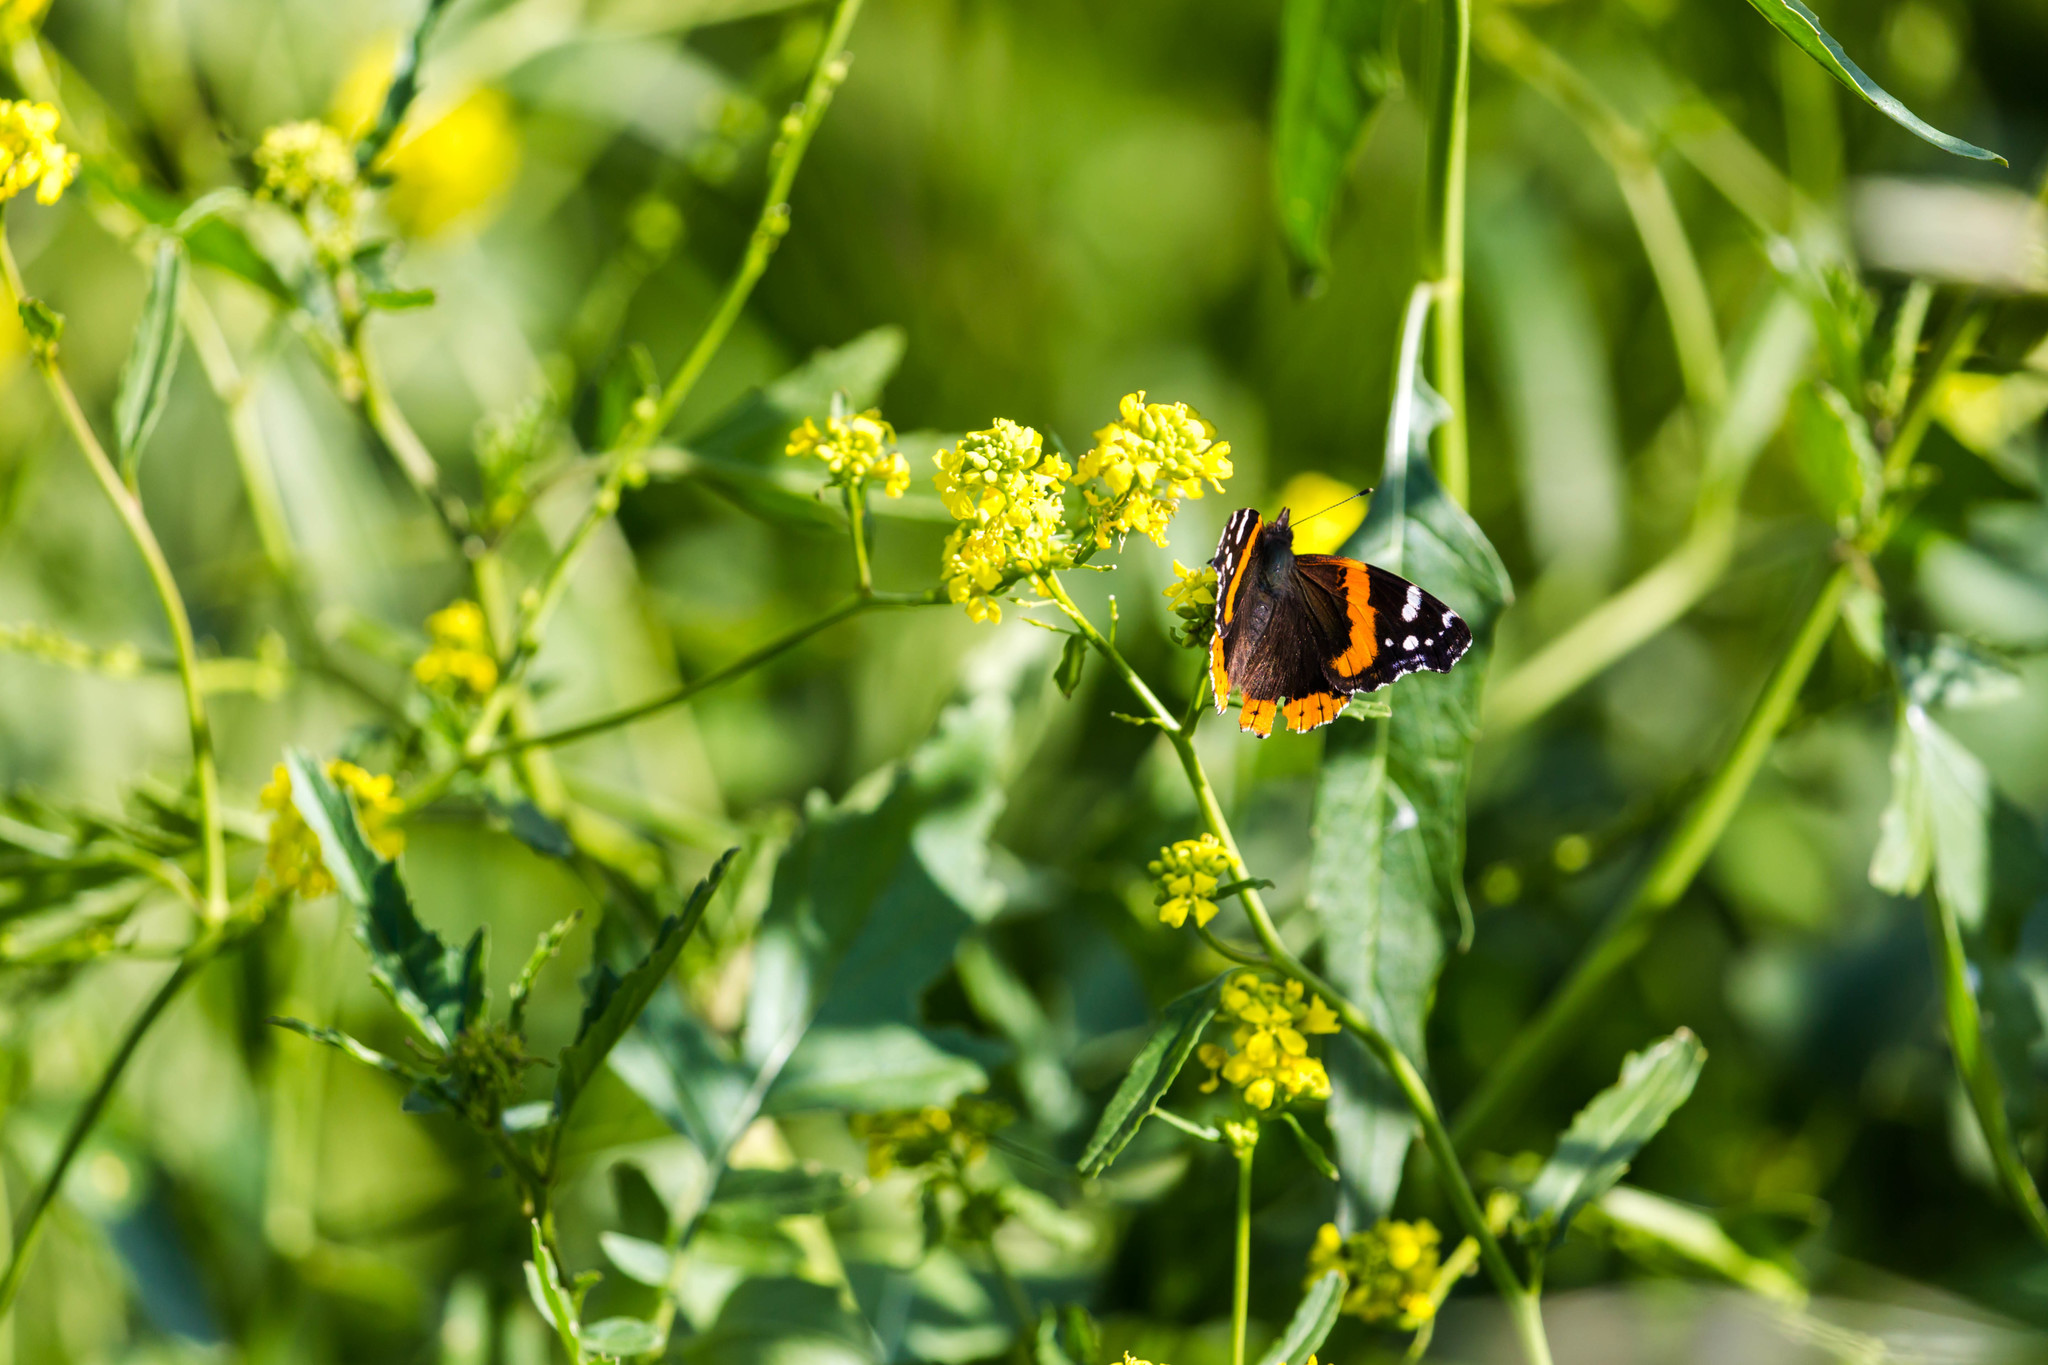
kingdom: Animalia
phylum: Arthropoda
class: Insecta
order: Lepidoptera
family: Nymphalidae
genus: Vanessa
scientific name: Vanessa atalanta
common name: Red admiral
